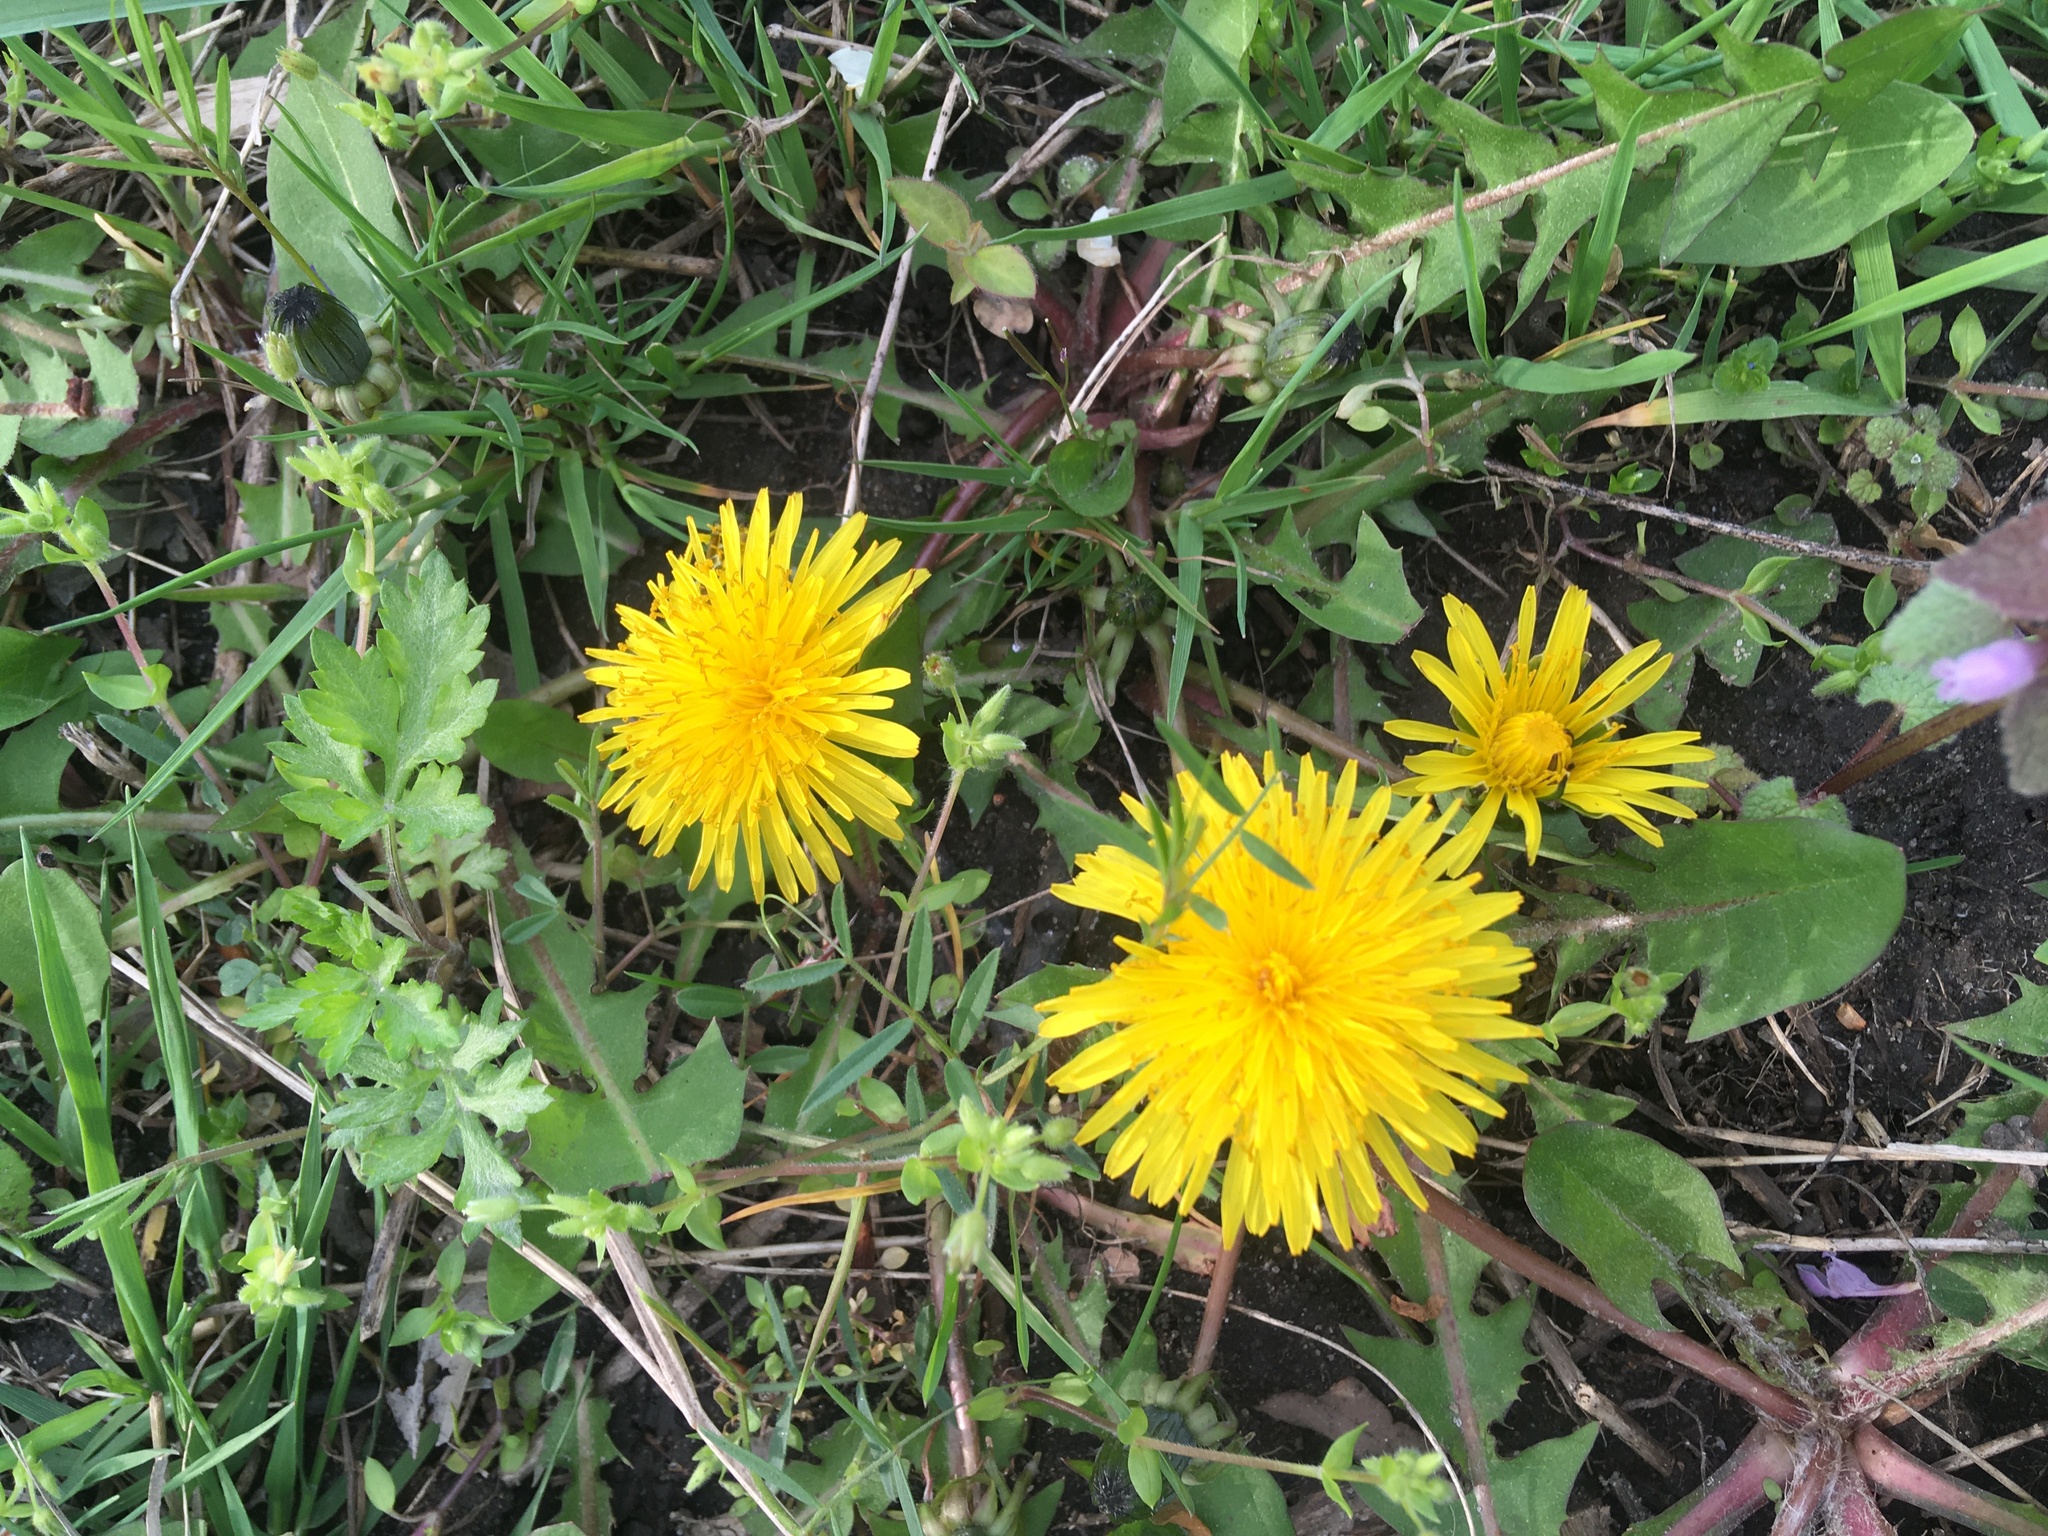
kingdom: Plantae
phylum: Tracheophyta
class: Magnoliopsida
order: Asterales
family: Asteraceae
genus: Taraxacum
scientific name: Taraxacum officinale
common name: Common dandelion
